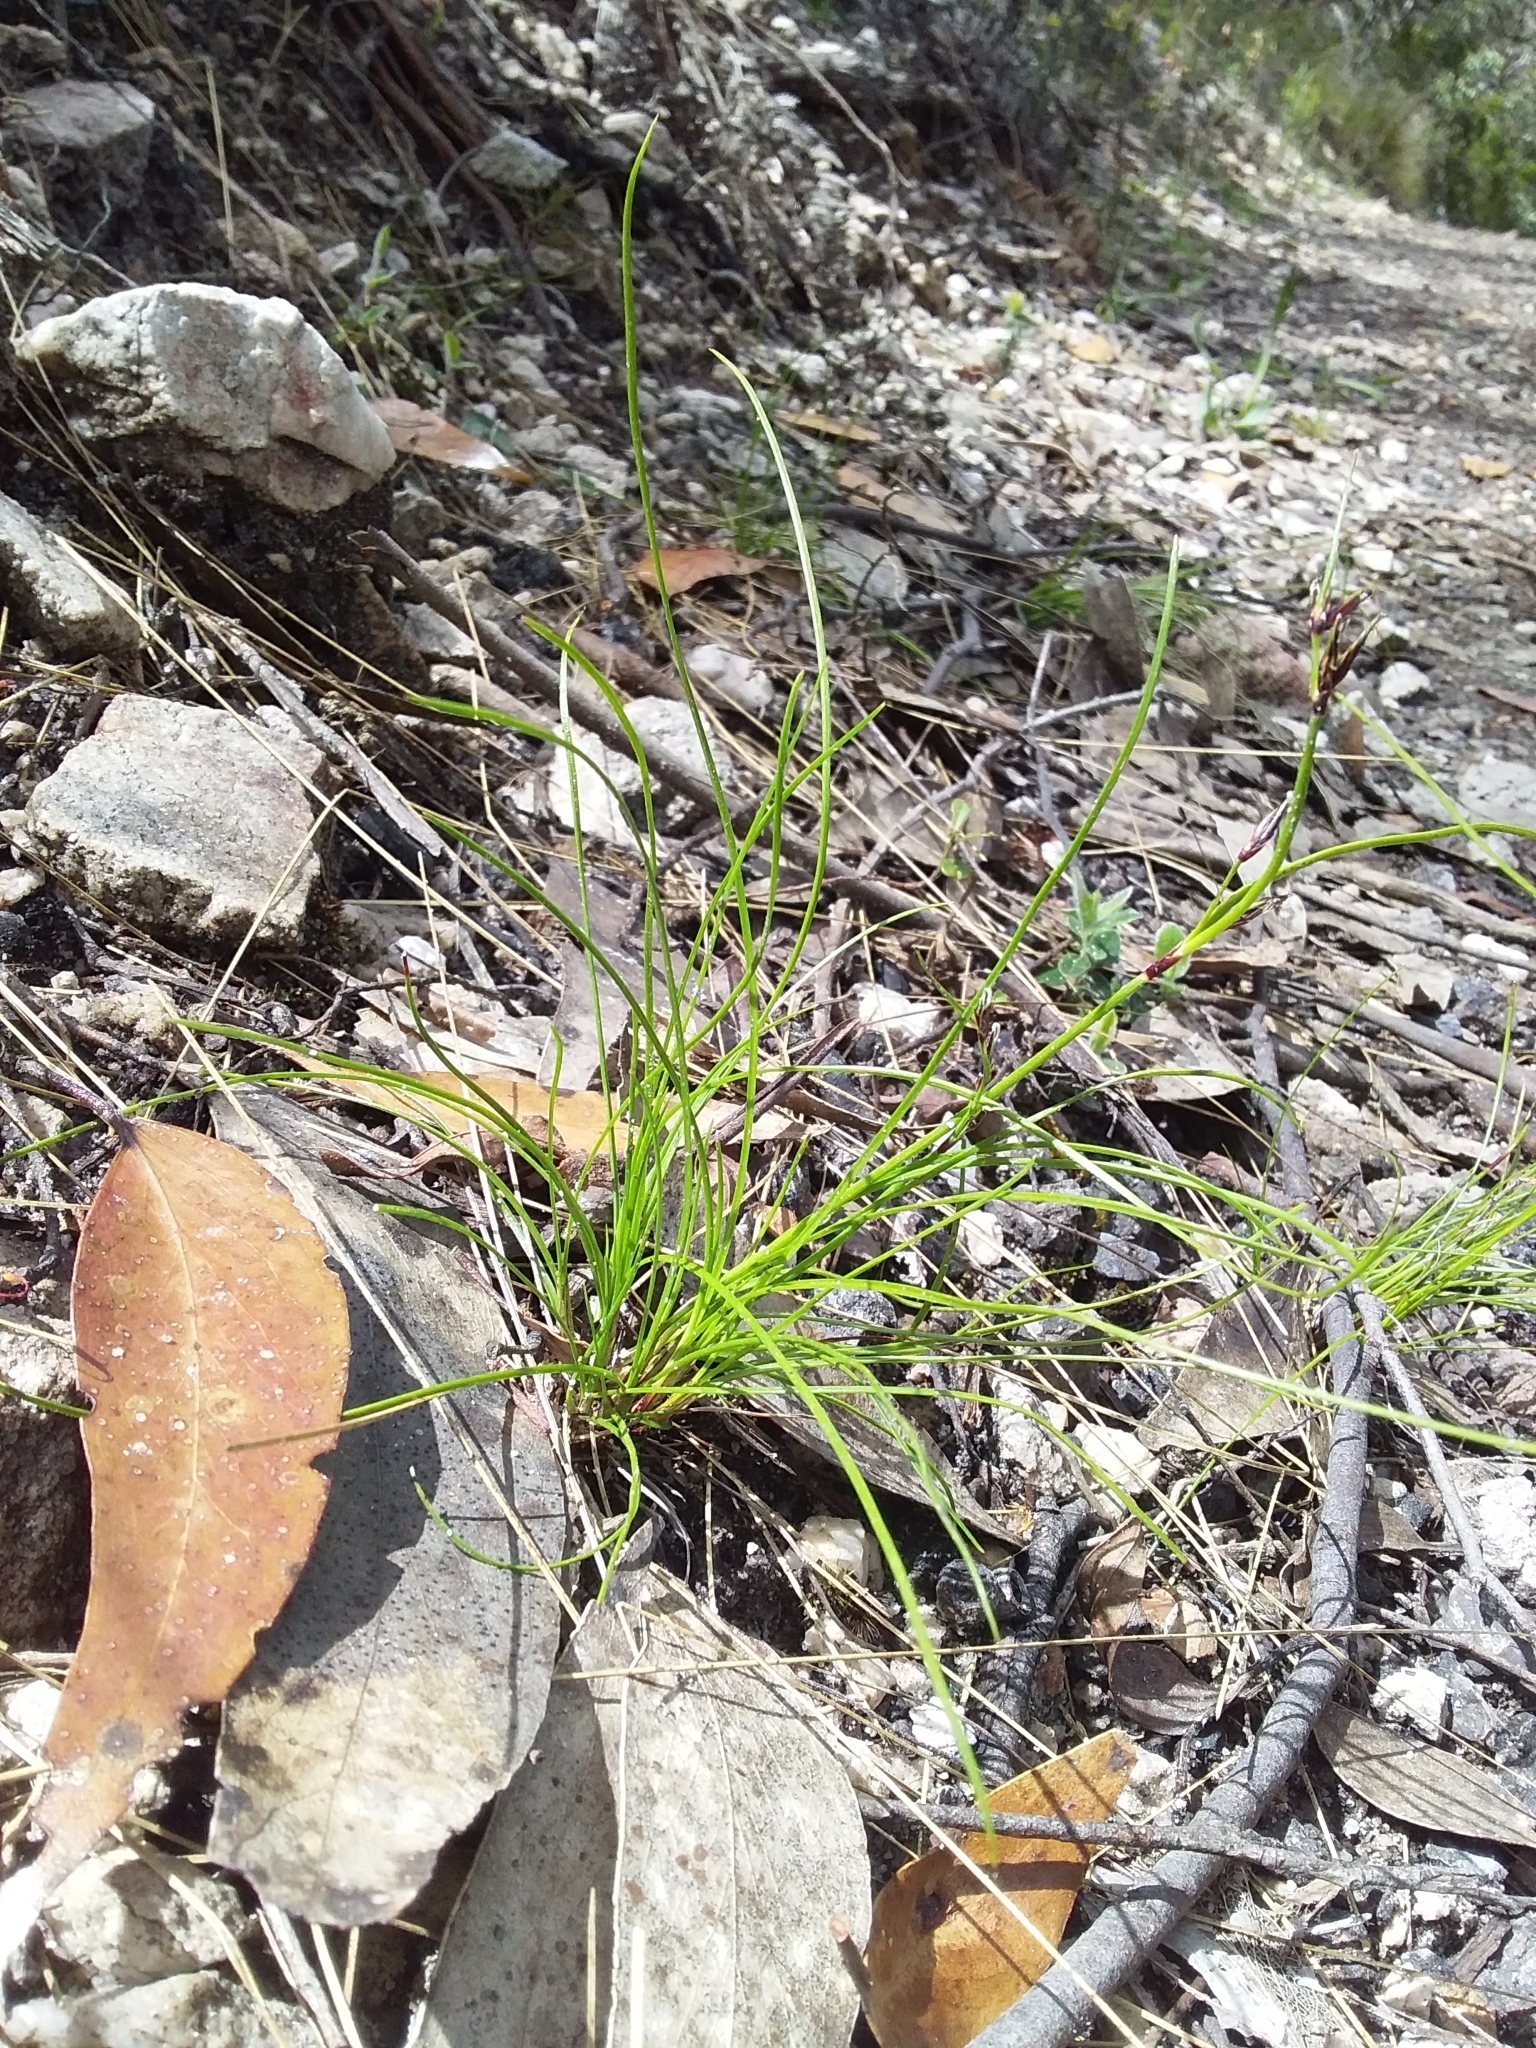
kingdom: Plantae
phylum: Tracheophyta
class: Liliopsida
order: Poales
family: Cyperaceae
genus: Schoenus
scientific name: Schoenus apogon
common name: Smooth bogrush
